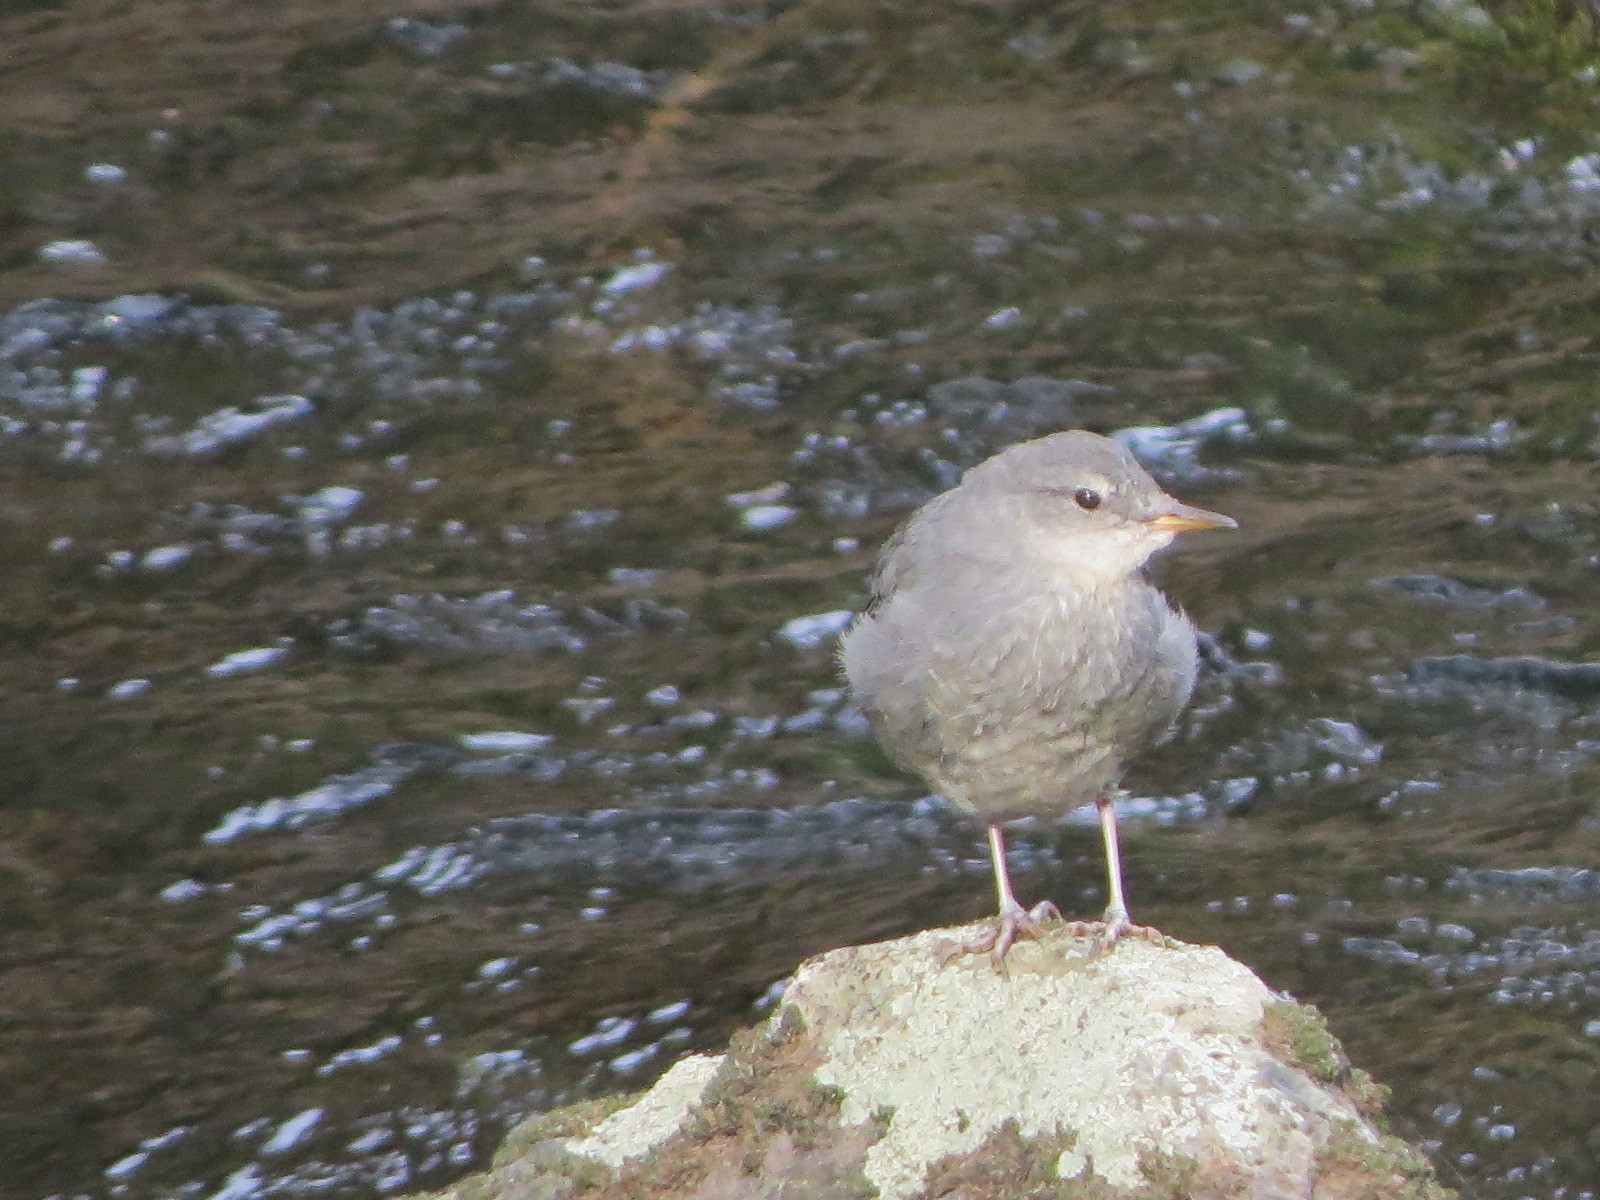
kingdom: Animalia
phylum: Chordata
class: Aves
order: Passeriformes
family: Cinclidae
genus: Cinclus
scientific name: Cinclus mexicanus
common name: American dipper
